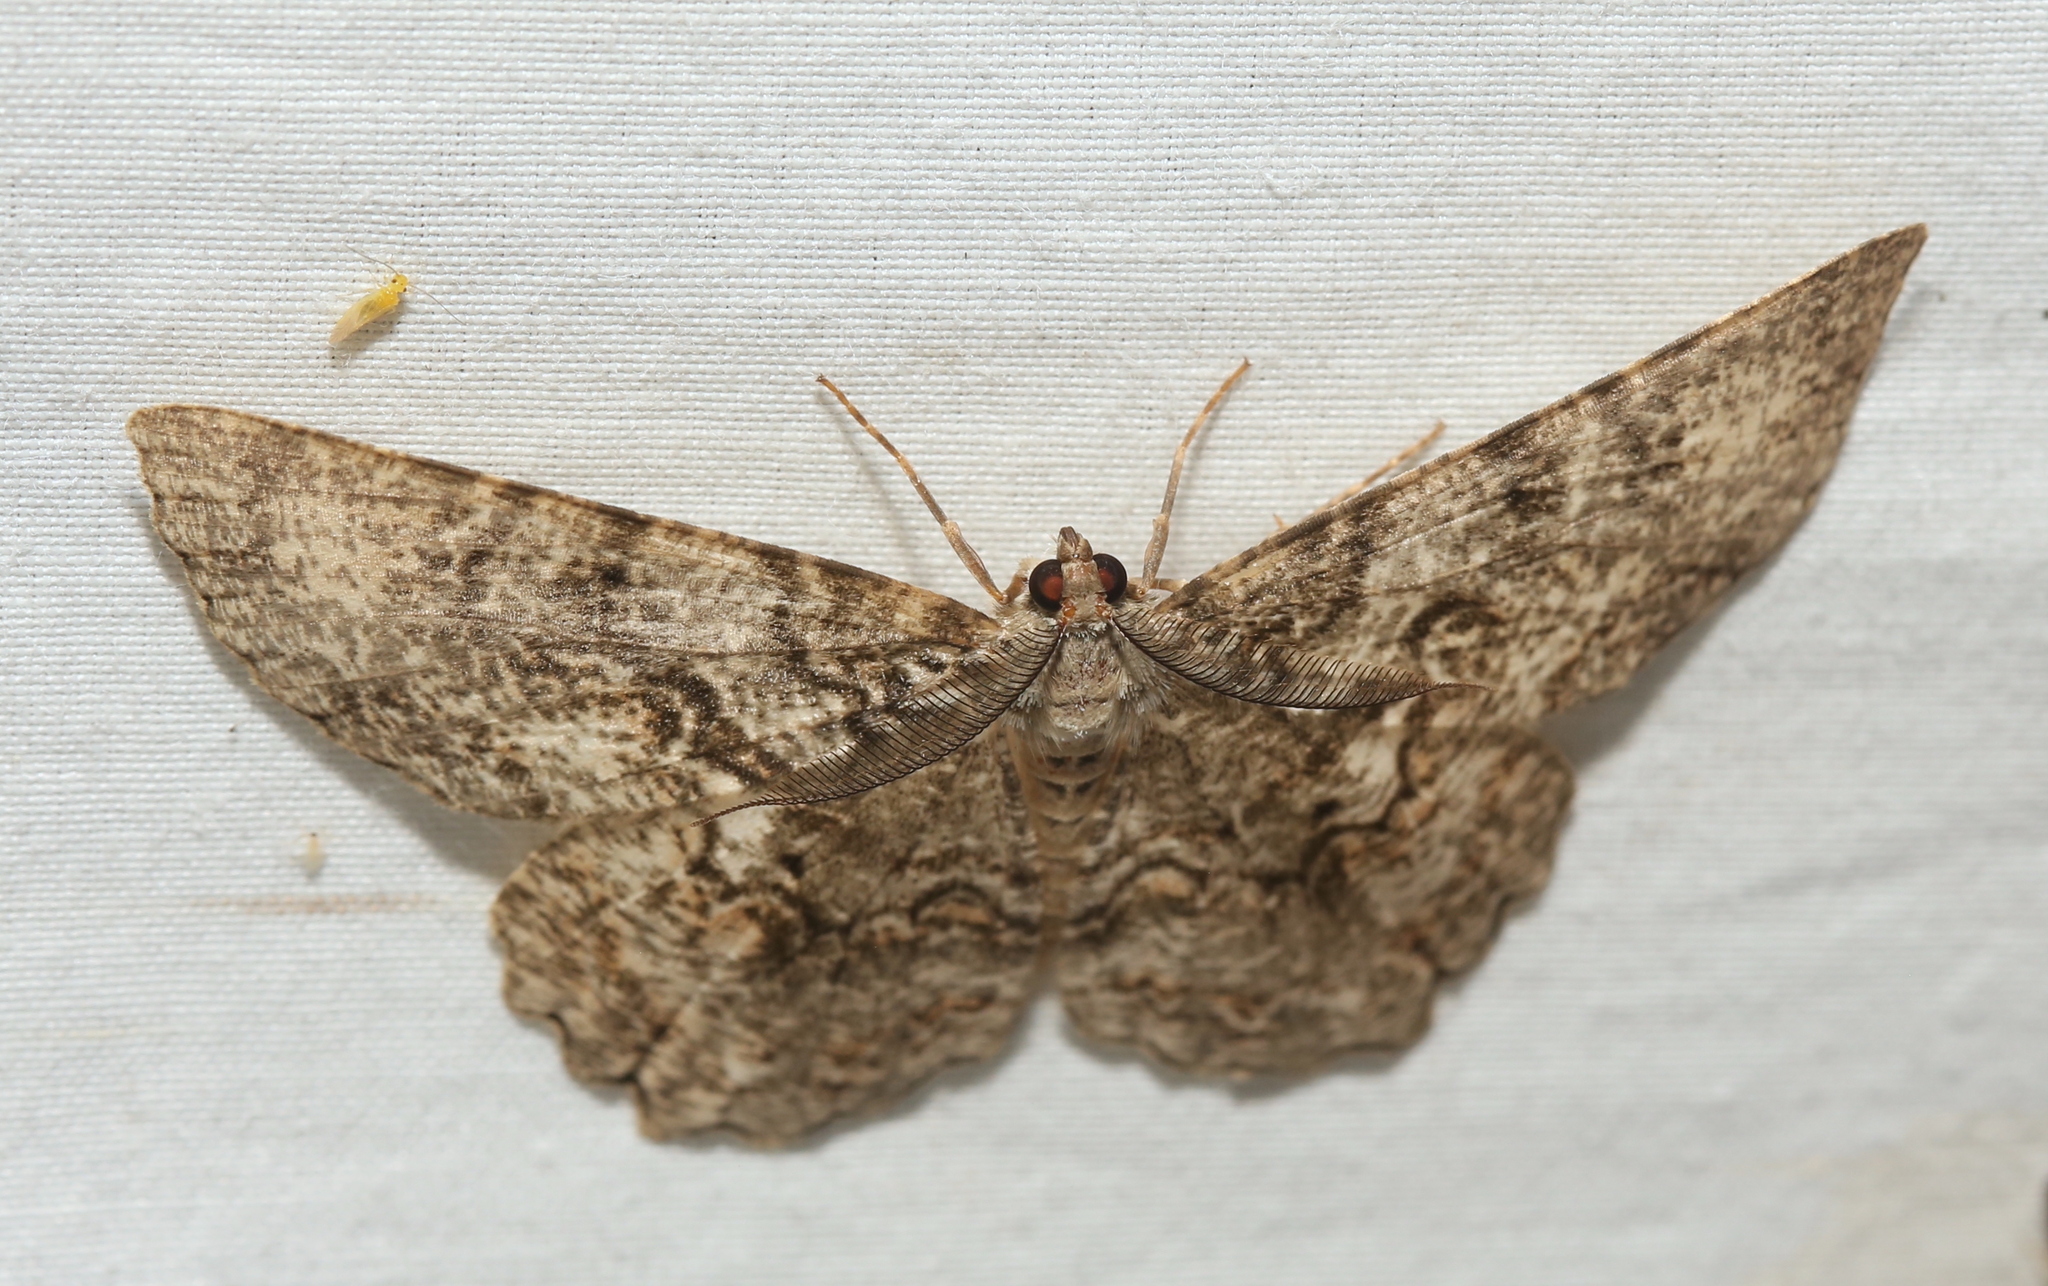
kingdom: Animalia
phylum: Arthropoda
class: Insecta
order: Lepidoptera
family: Geometridae
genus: Epimecis
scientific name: Epimecis hortaria
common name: Tulip-tree beauty
